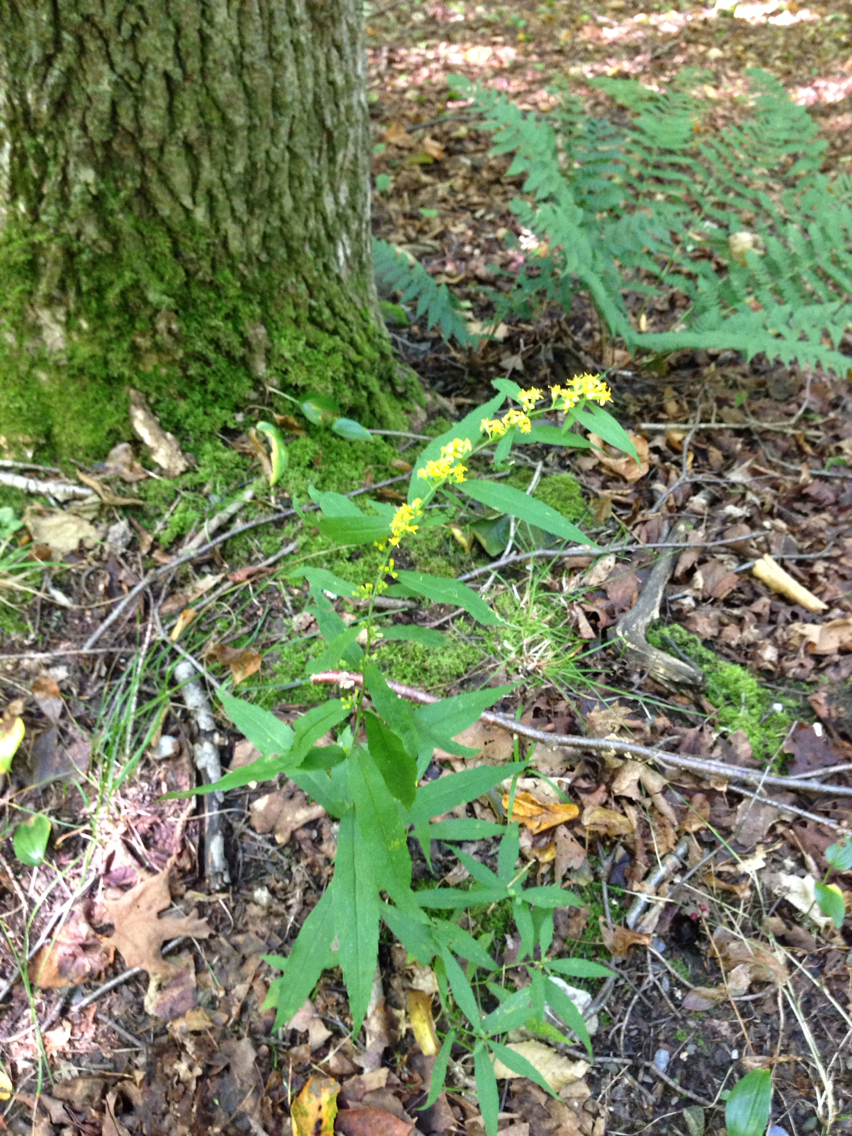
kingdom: Plantae
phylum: Tracheophyta
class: Magnoliopsida
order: Asterales
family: Asteraceae
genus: Solidago
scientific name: Solidago caesia
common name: Woodland goldenrod
